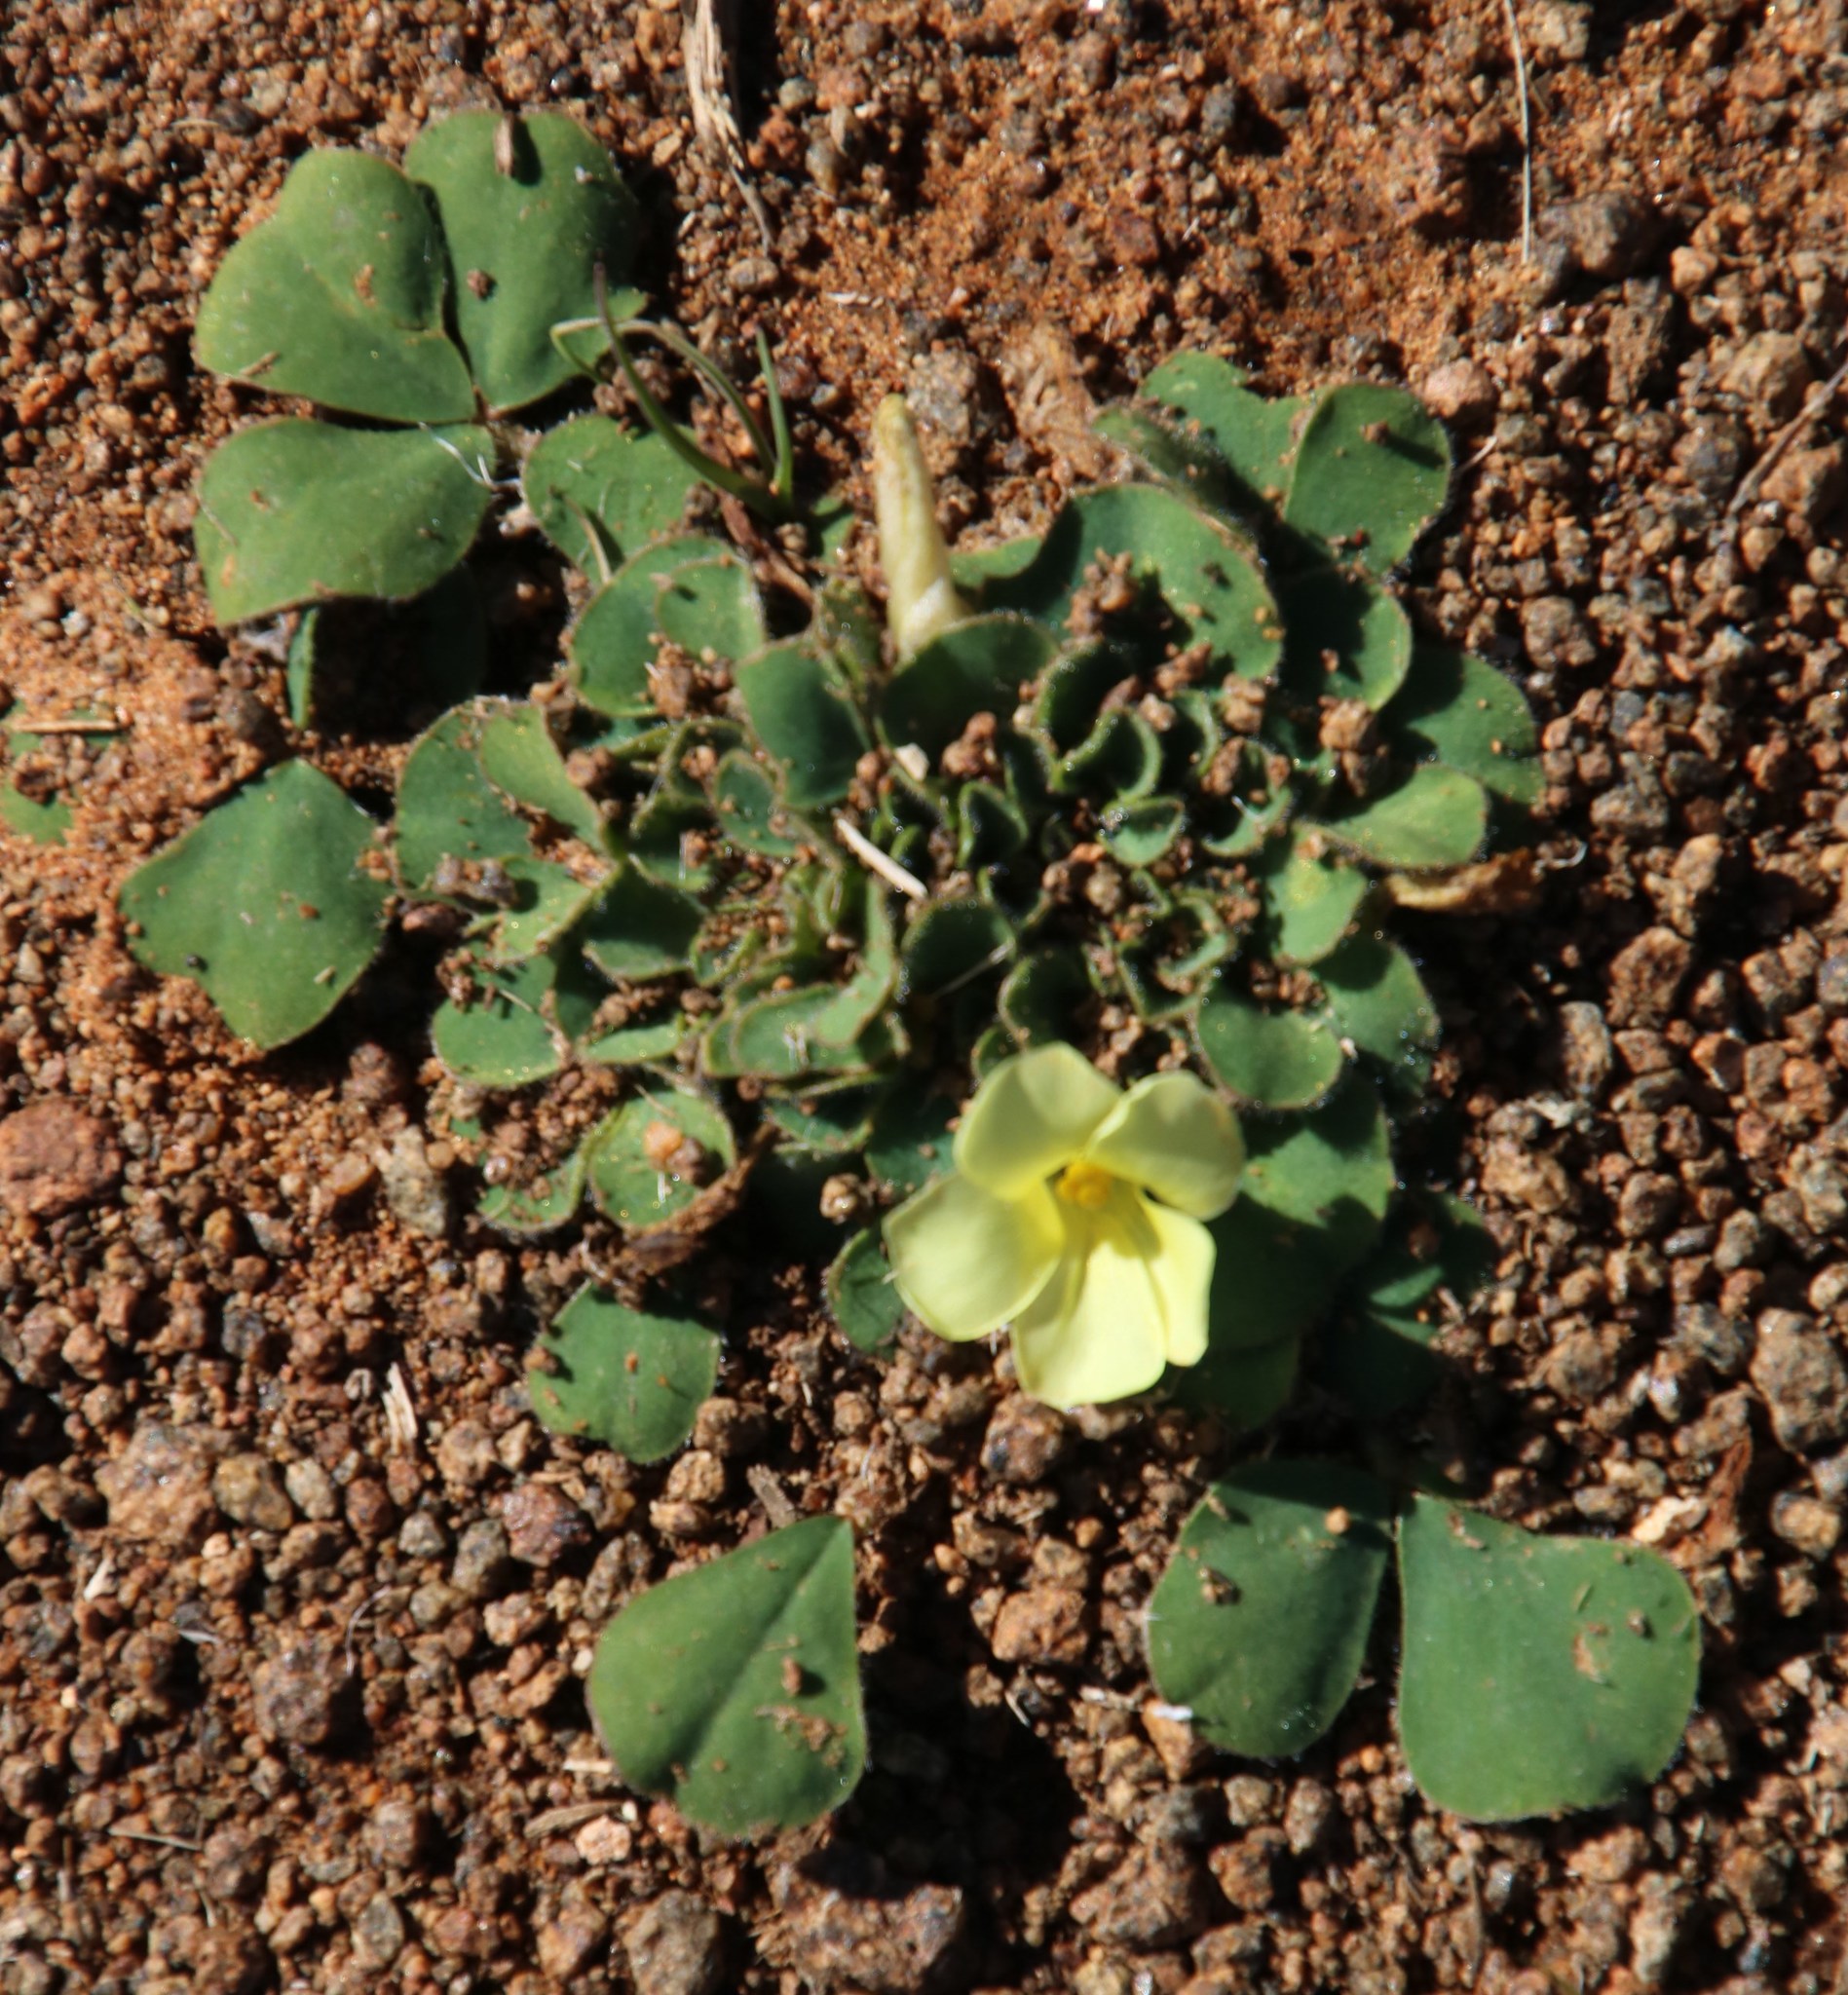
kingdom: Plantae
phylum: Tracheophyta
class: Magnoliopsida
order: Oxalidales
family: Oxalidaceae
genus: Oxalis
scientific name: Oxalis melanosticta
